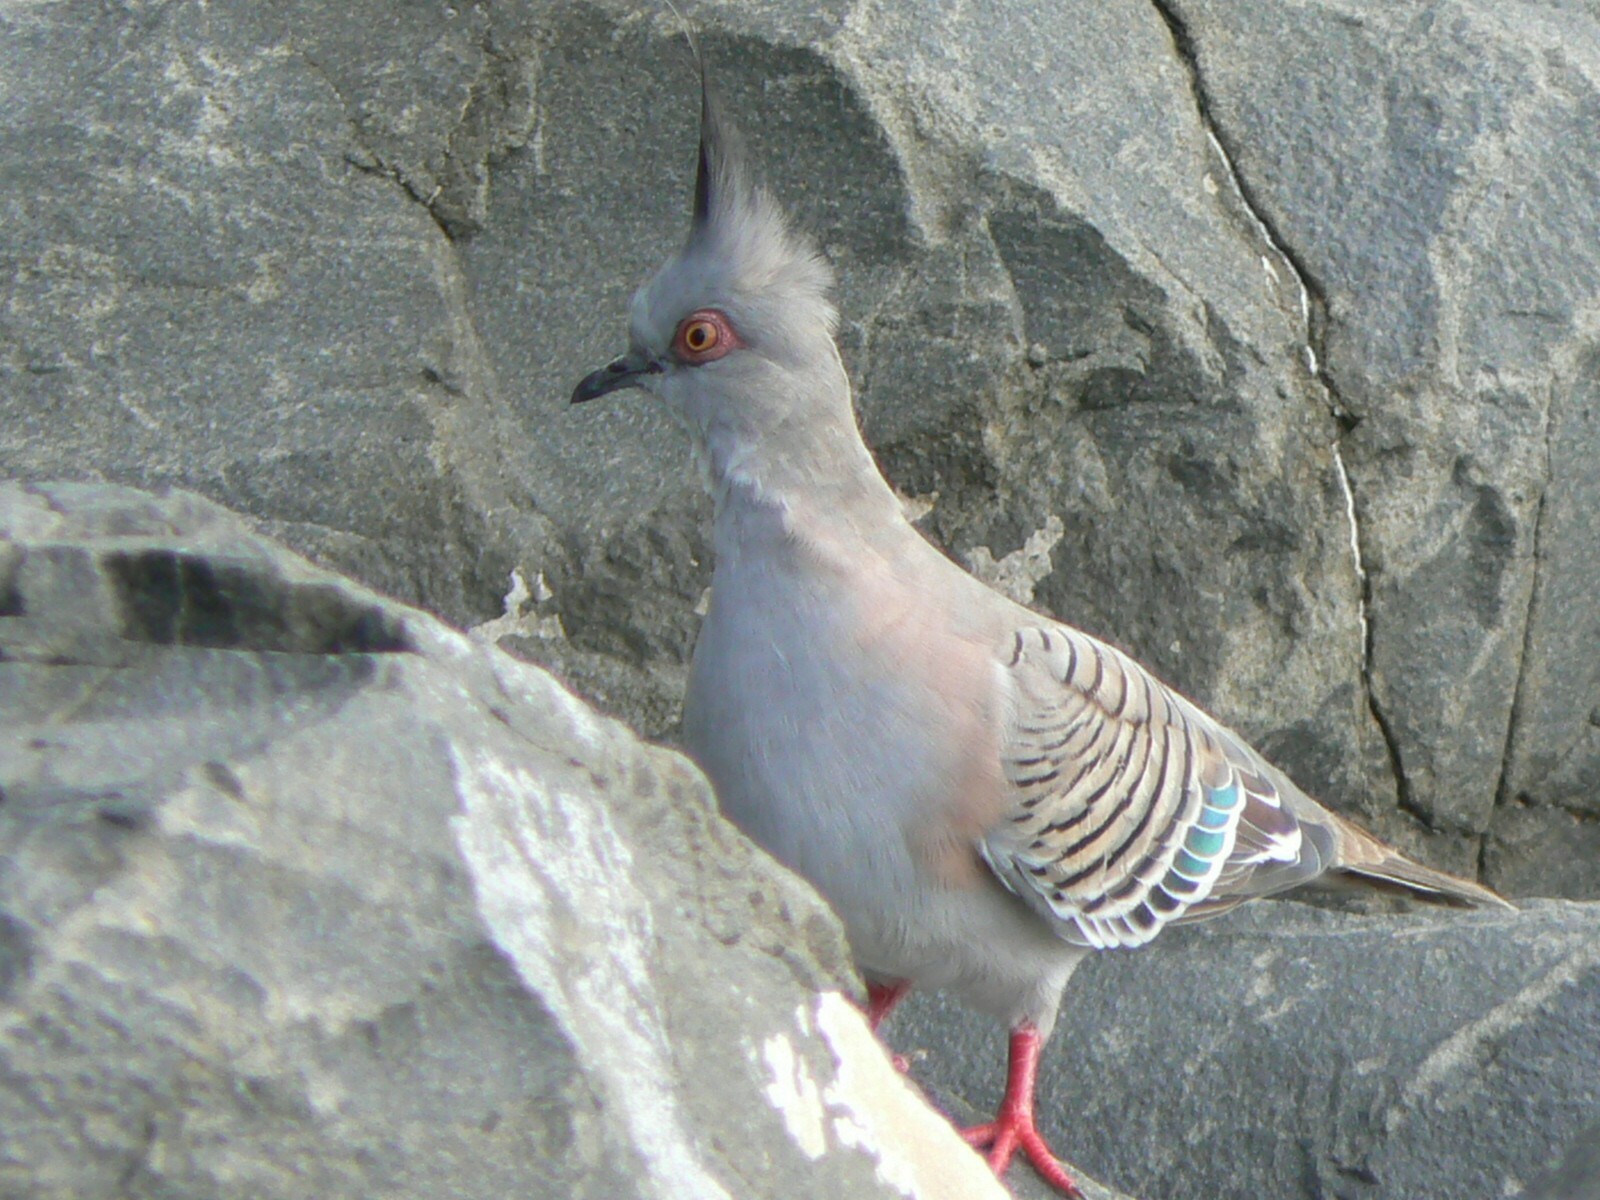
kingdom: Animalia
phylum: Chordata
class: Aves
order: Columbiformes
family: Columbidae
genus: Ocyphaps
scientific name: Ocyphaps lophotes
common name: Crested pigeon
